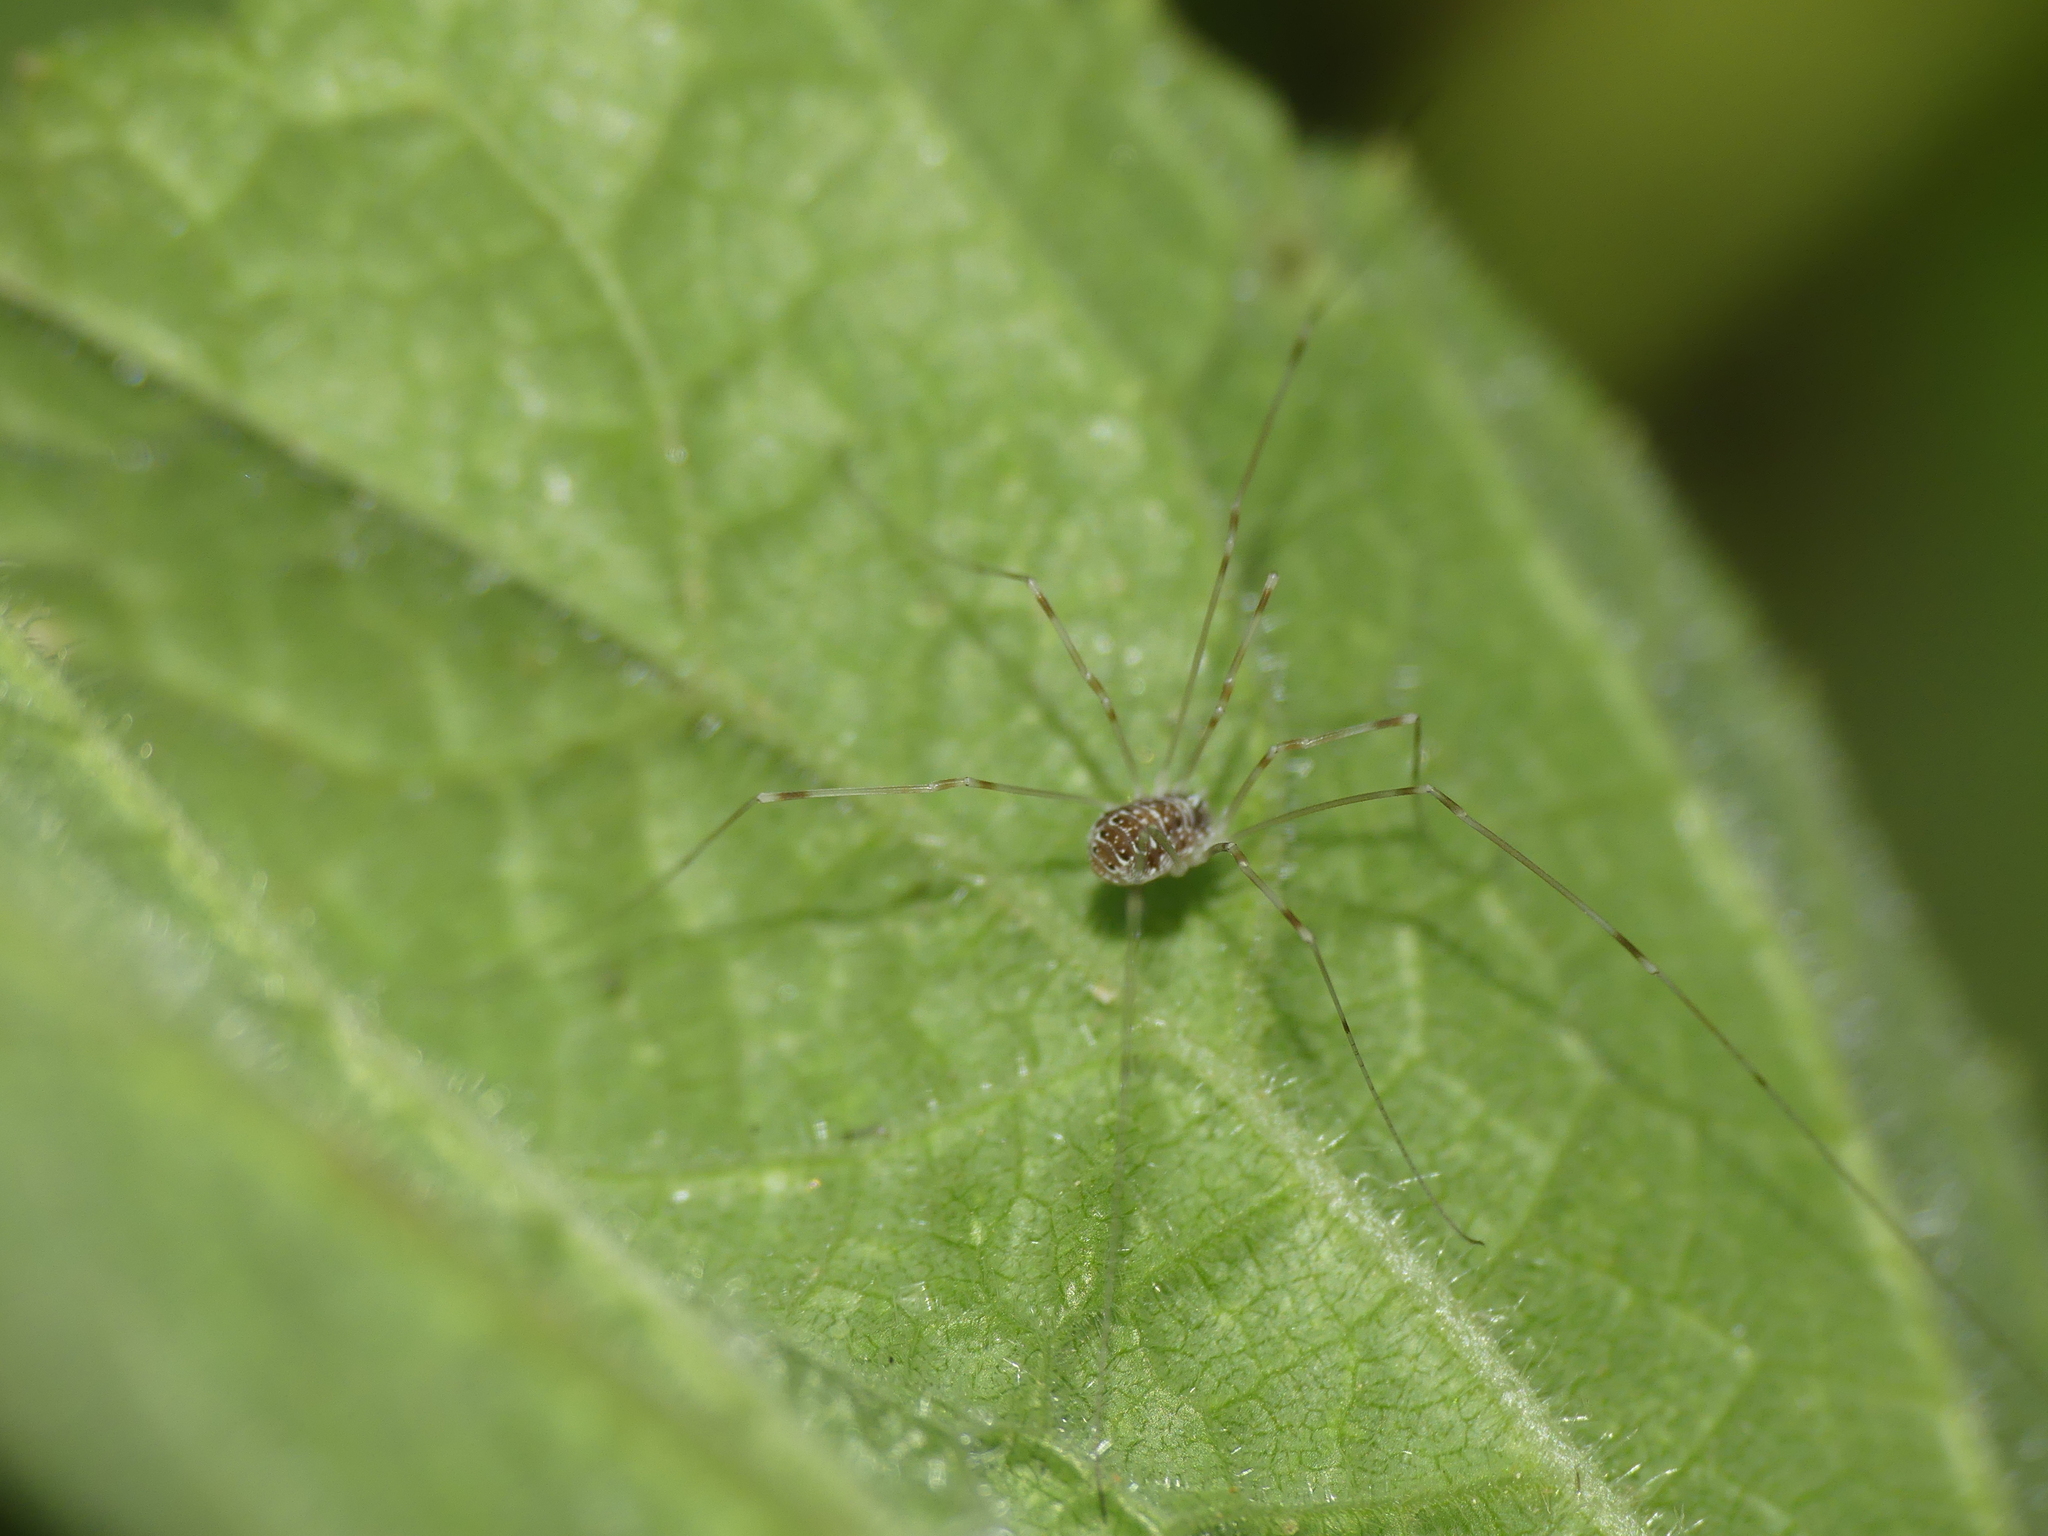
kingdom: Animalia
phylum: Arthropoda
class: Arachnida
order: Opiliones
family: Phalangiidae
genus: Opilio
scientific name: Opilio canestrinii
